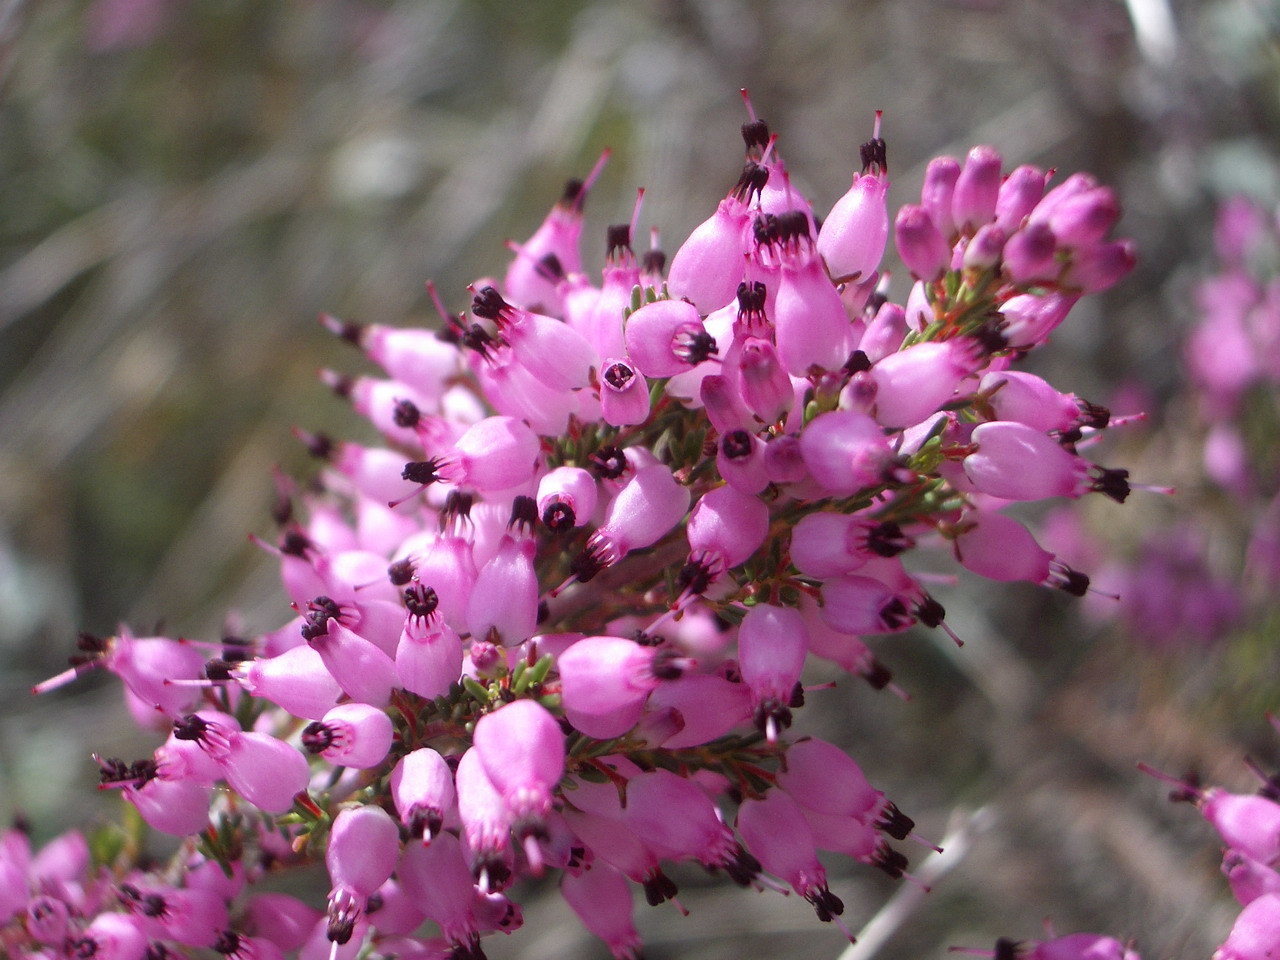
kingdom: Plantae
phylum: Tracheophyta
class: Magnoliopsida
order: Ericales
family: Ericaceae
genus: Erica
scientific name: Erica nutans
